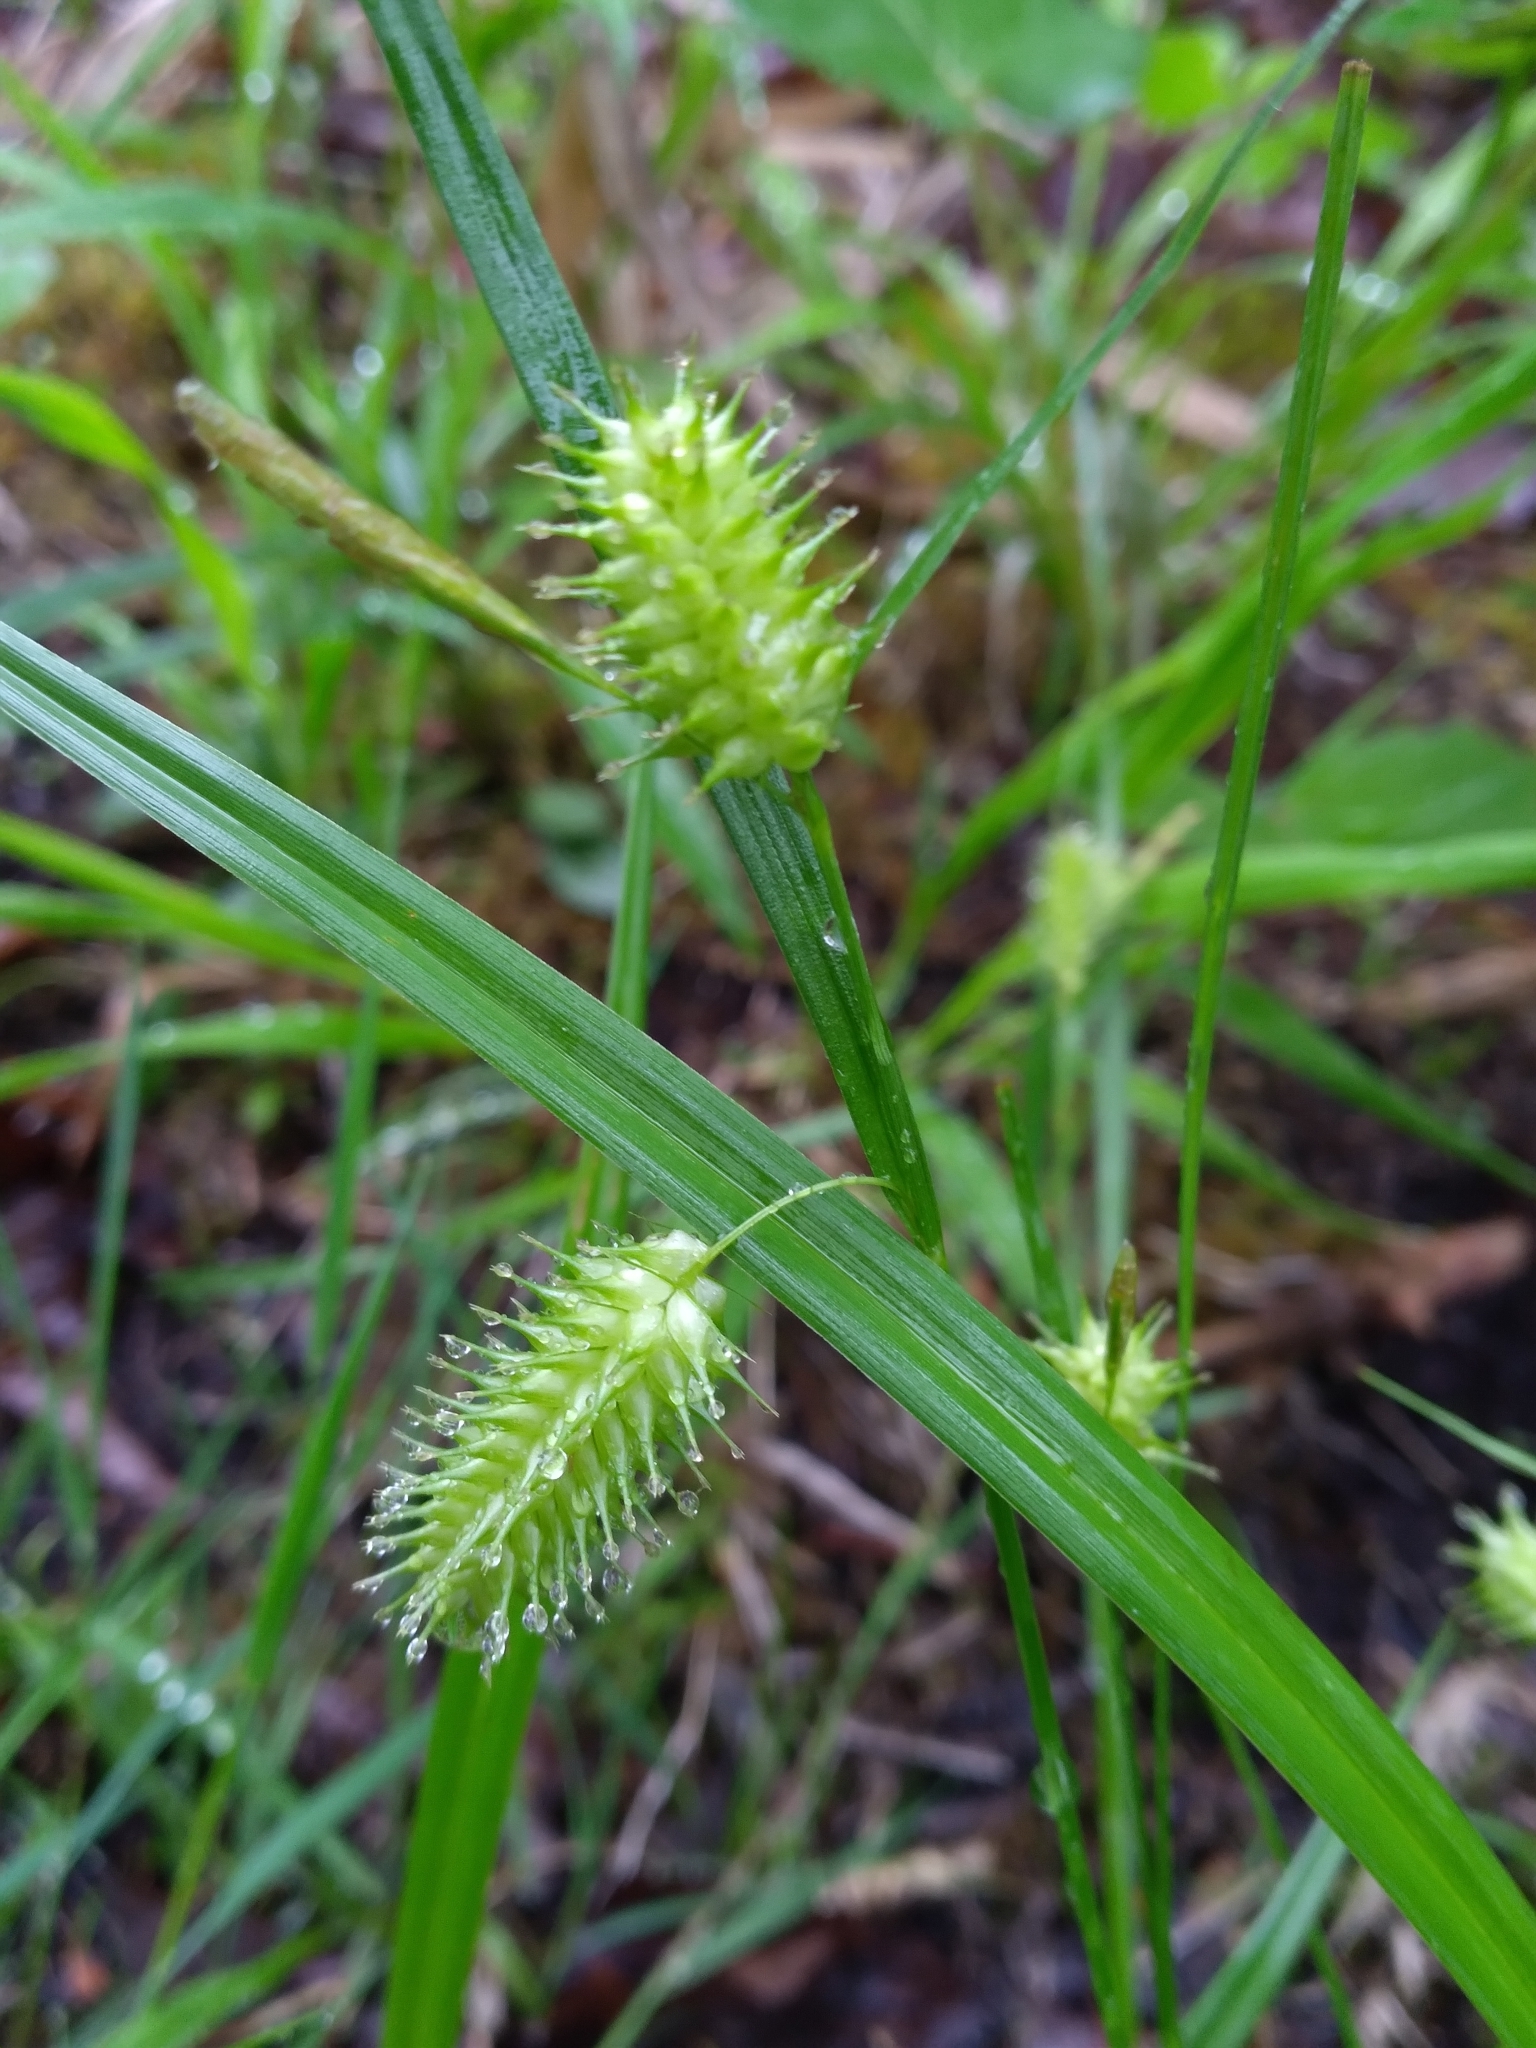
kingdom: Plantae
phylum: Tracheophyta
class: Liliopsida
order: Poales
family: Cyperaceae
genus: Carex
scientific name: Carex hystericina
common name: Bottlebrush sedge
